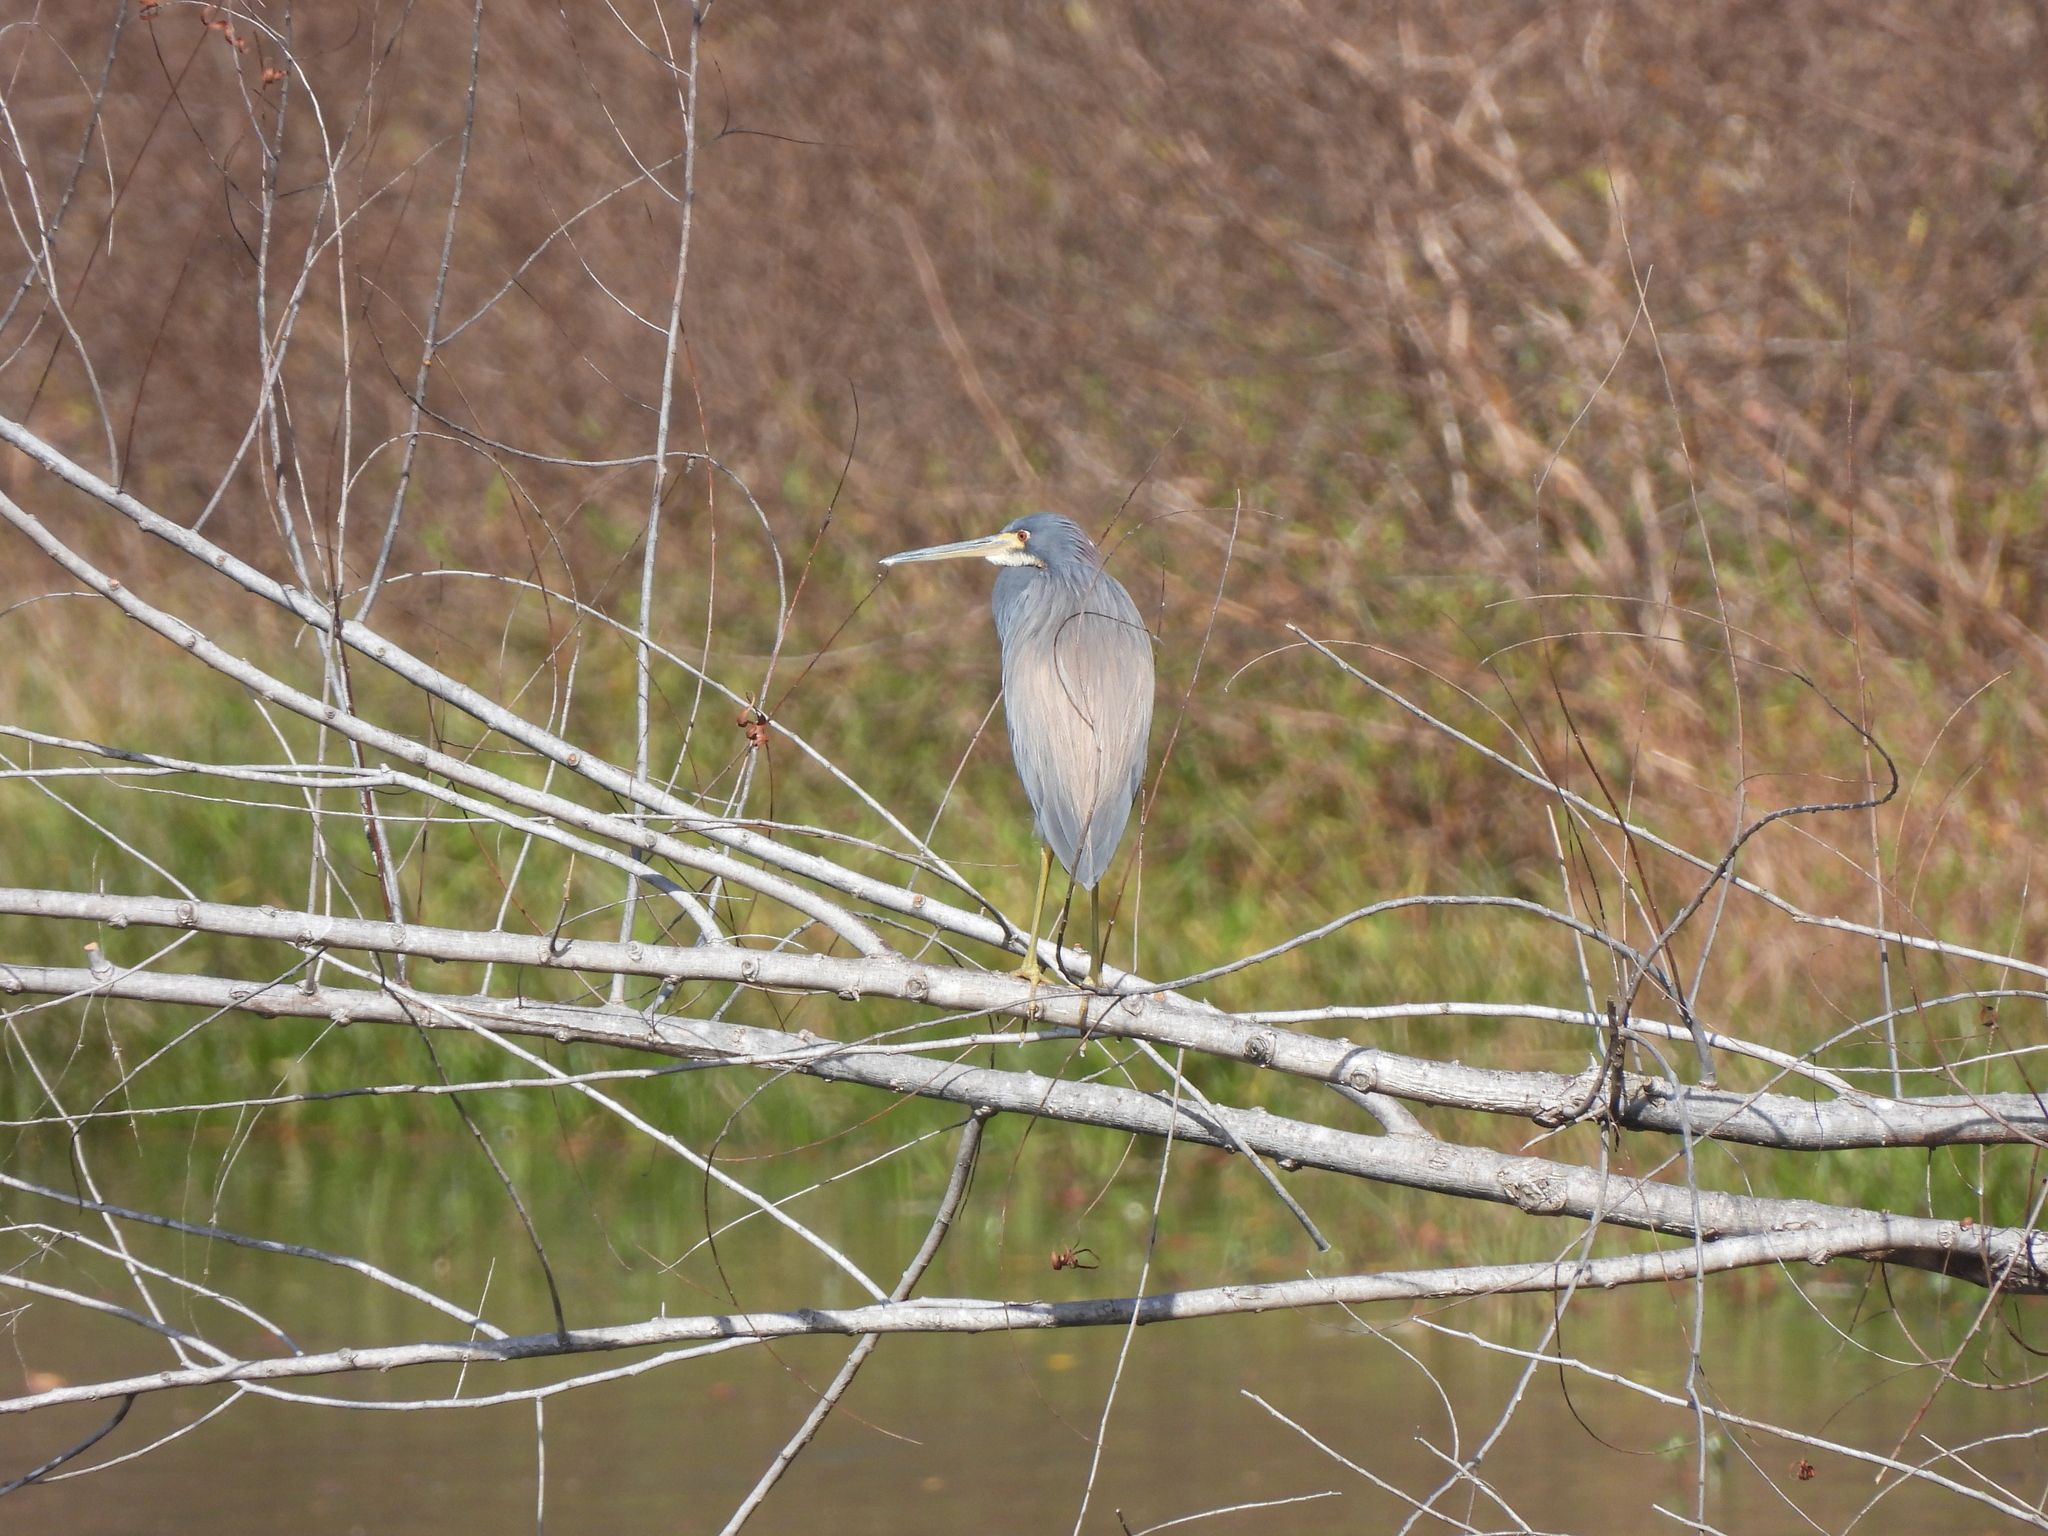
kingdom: Animalia
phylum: Chordata
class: Aves
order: Pelecaniformes
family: Ardeidae
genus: Egretta
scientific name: Egretta tricolor
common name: Tricolored heron
